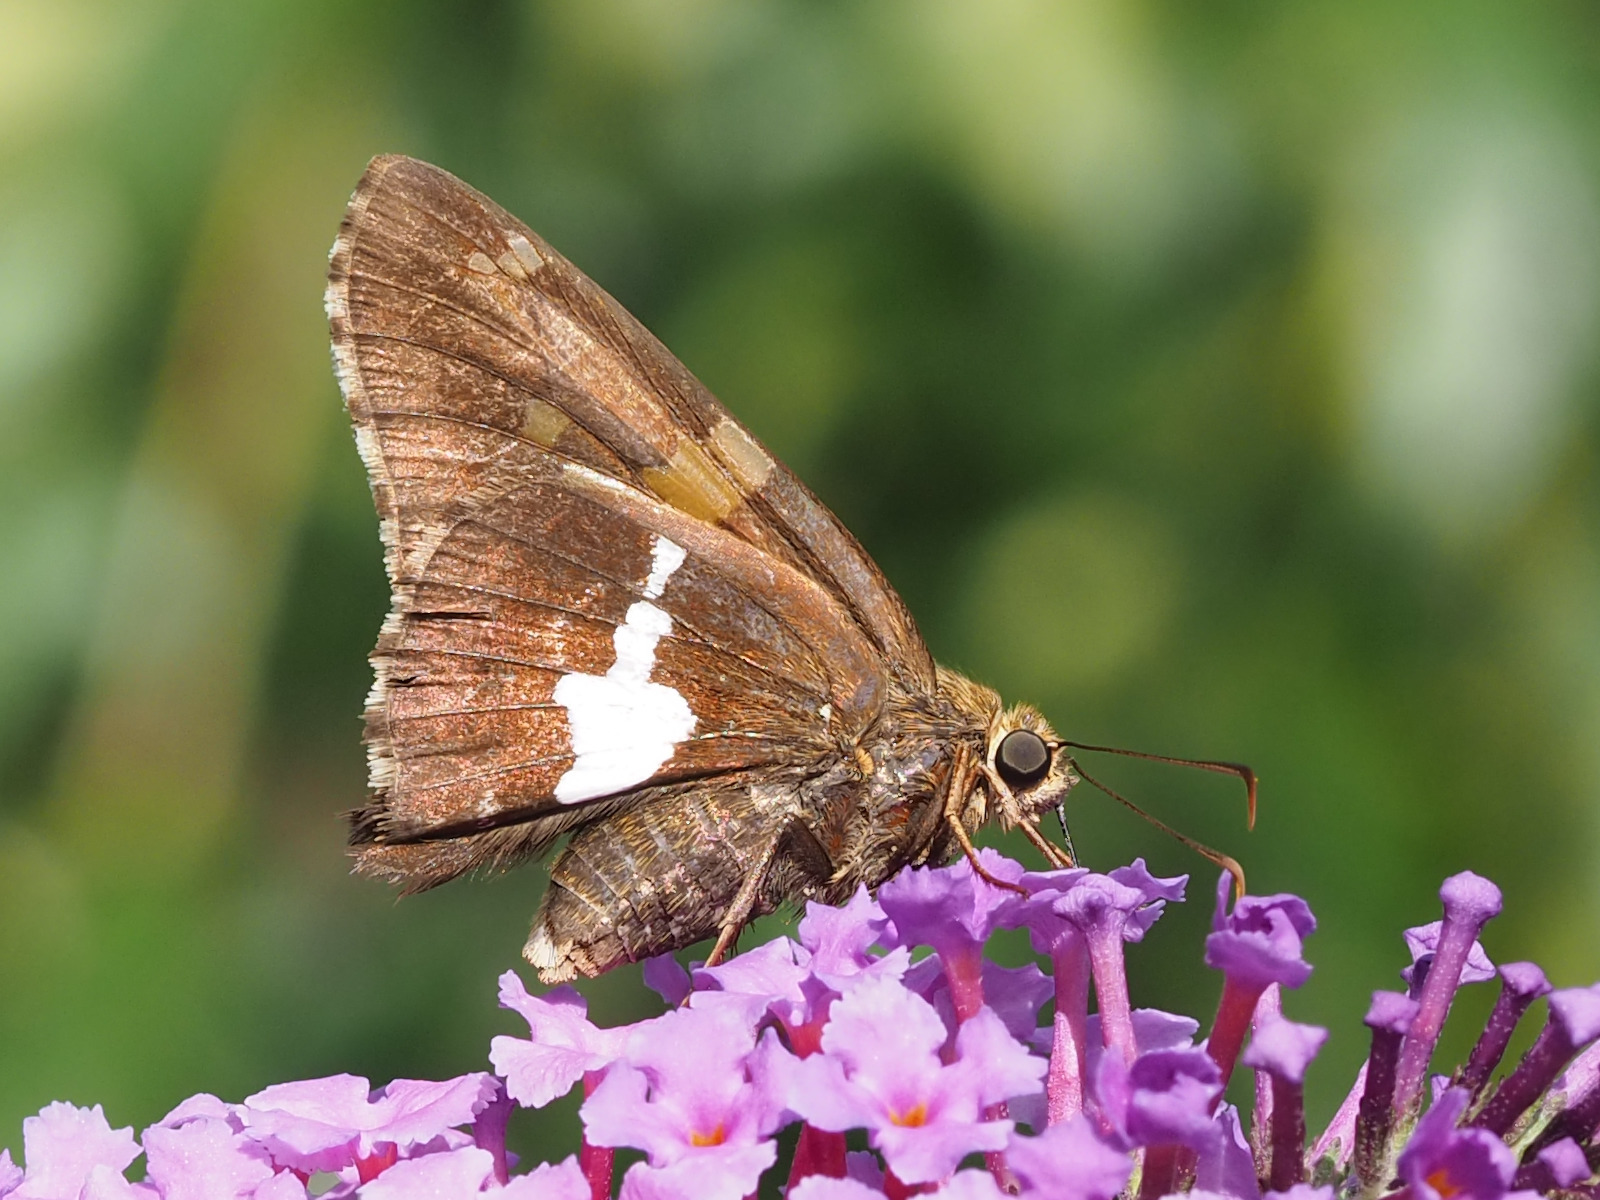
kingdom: Animalia
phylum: Arthropoda
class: Insecta
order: Lepidoptera
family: Hesperiidae
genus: Epargyreus
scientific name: Epargyreus clarus
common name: Silver-spotted skipper
